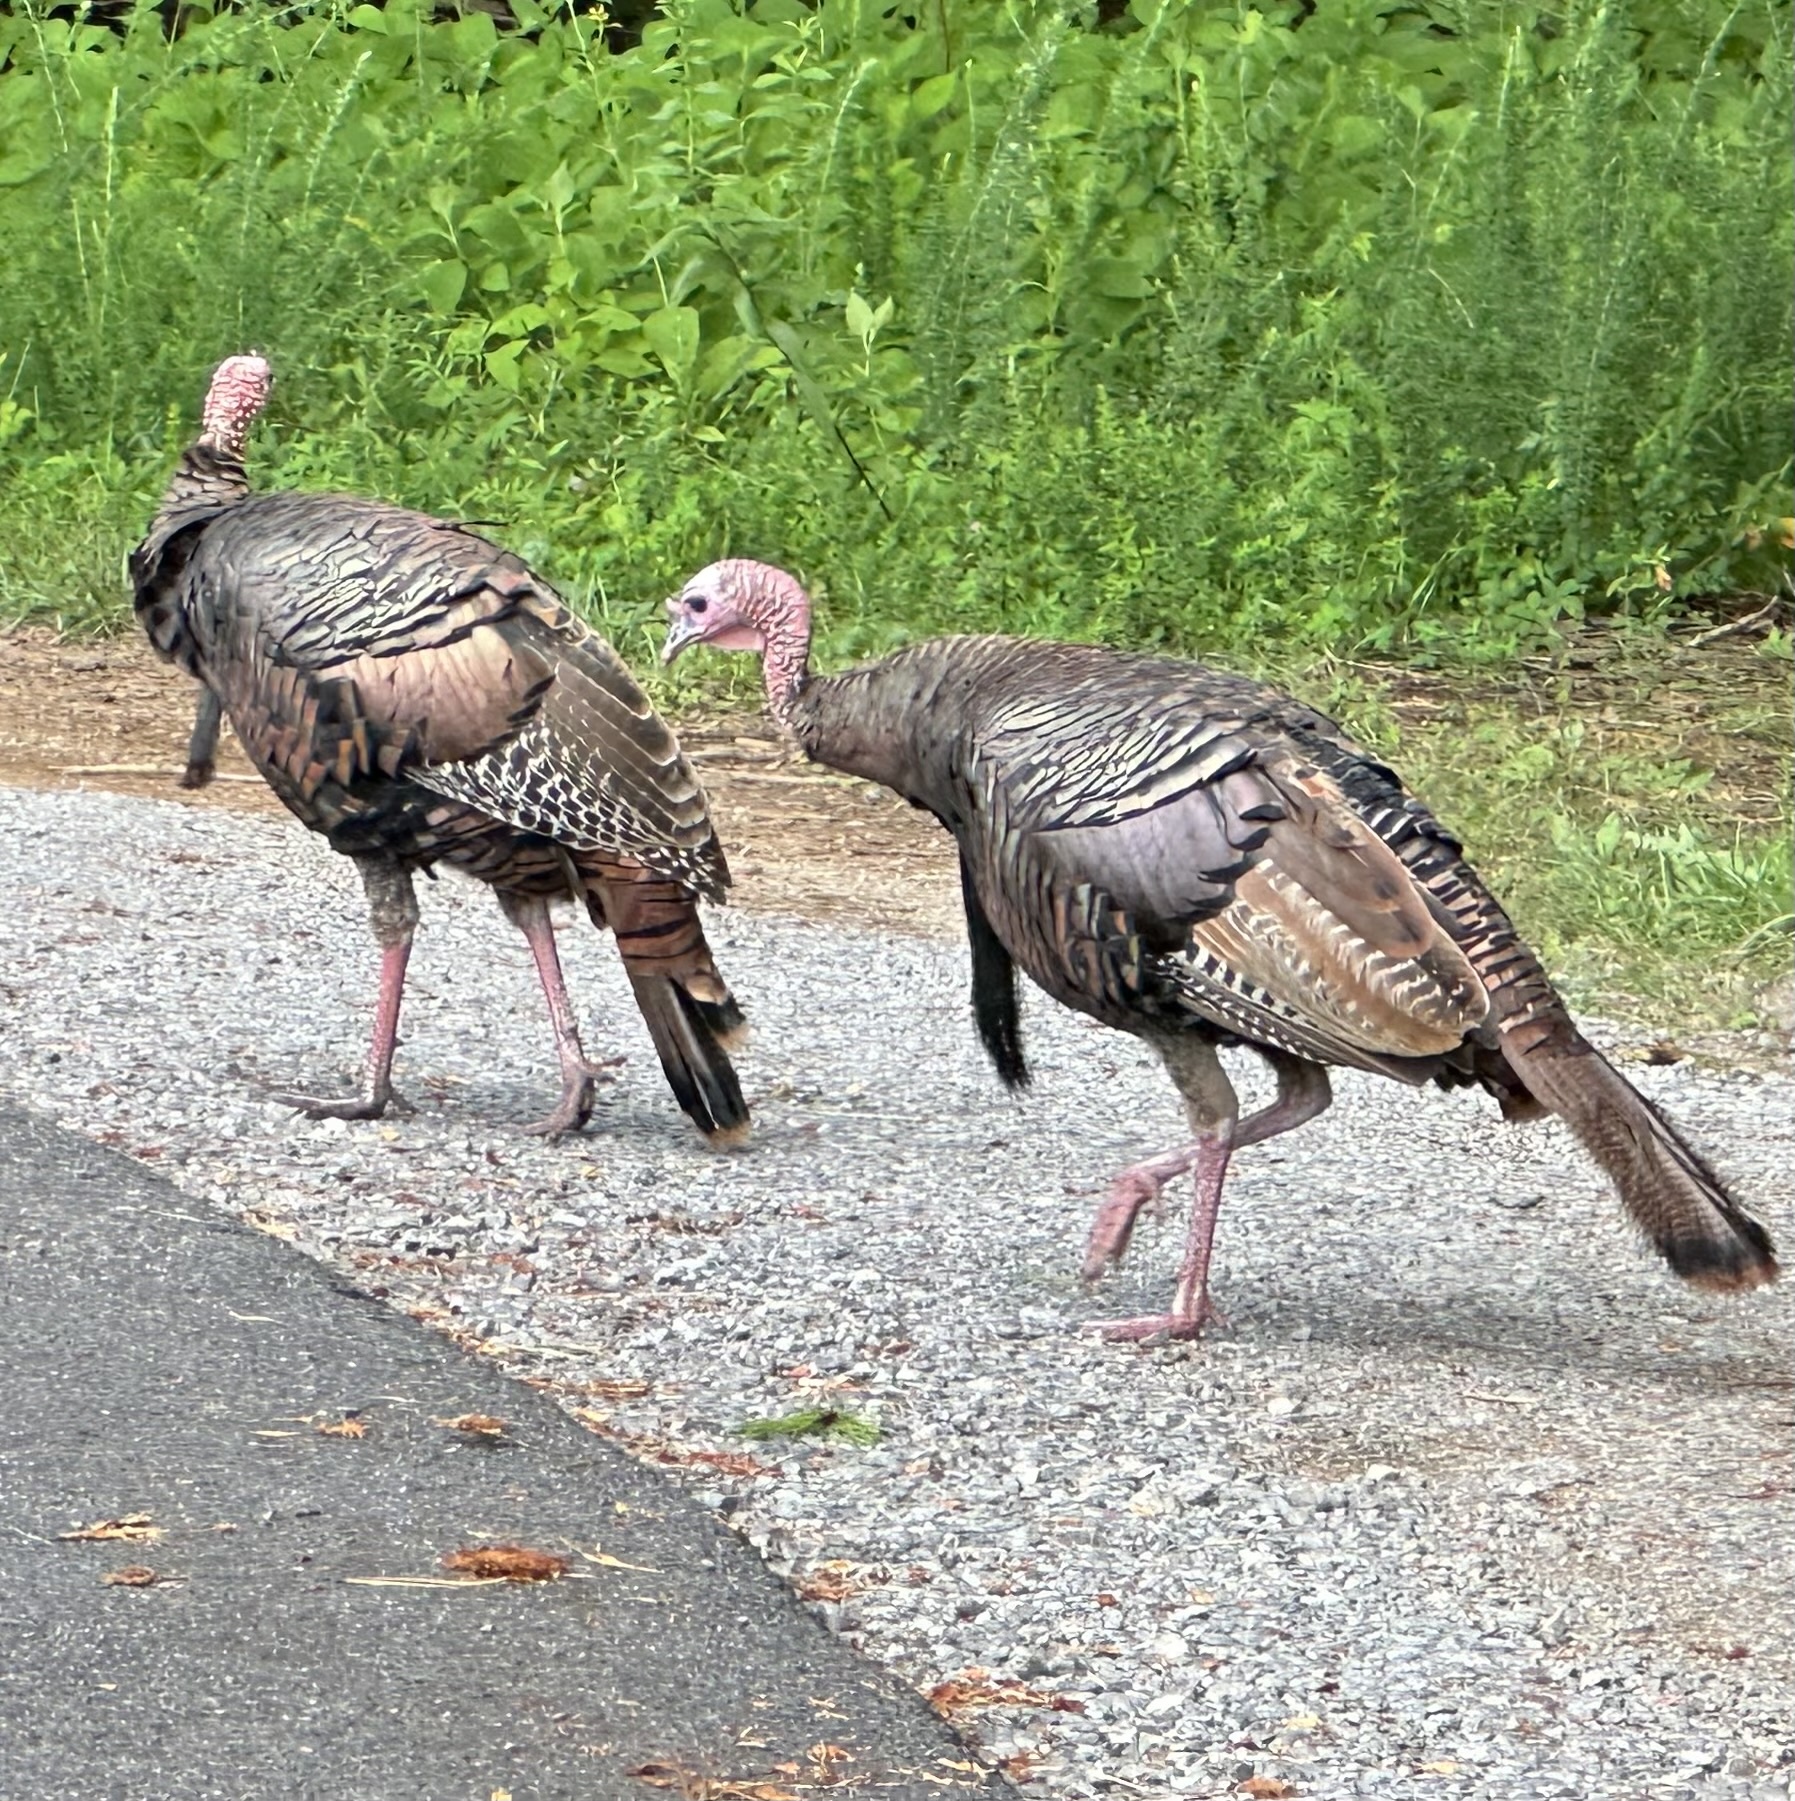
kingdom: Animalia
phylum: Chordata
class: Aves
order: Galliformes
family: Phasianidae
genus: Meleagris
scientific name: Meleagris gallopavo
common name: Wild turkey
